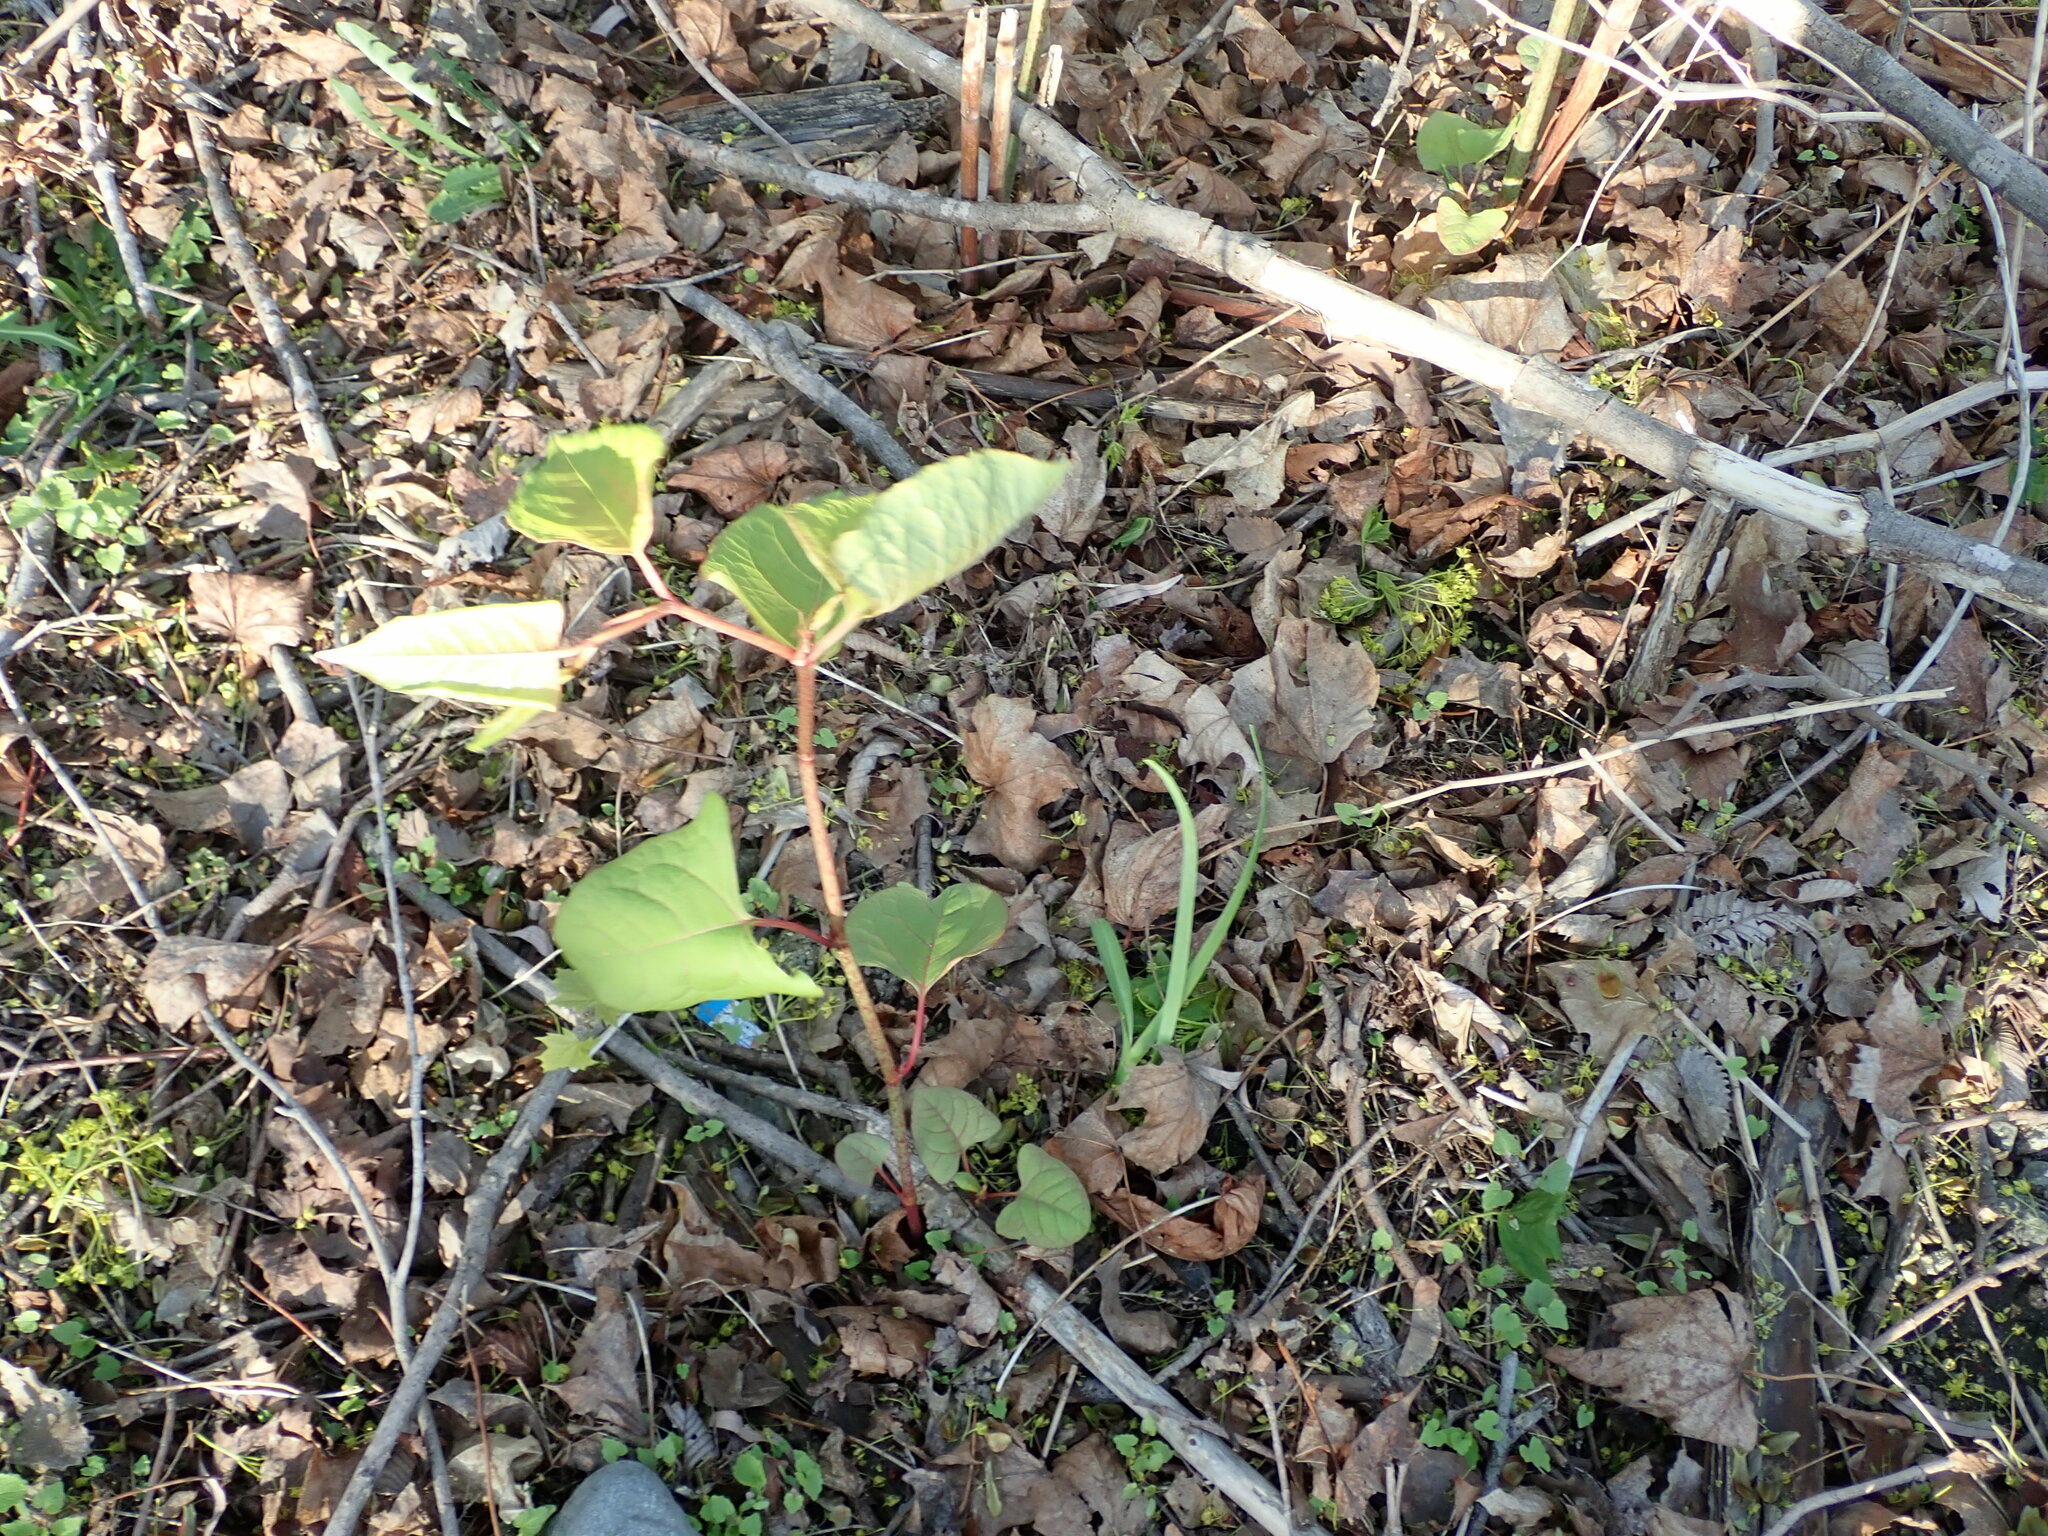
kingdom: Plantae
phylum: Tracheophyta
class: Magnoliopsida
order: Caryophyllales
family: Polygonaceae
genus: Reynoutria
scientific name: Reynoutria japonica
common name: Japanese knotweed
